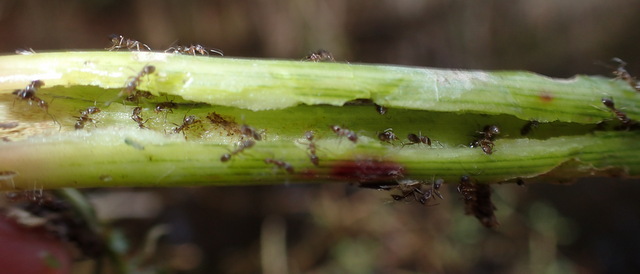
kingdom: Animalia
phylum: Arthropoda
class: Insecta
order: Hymenoptera
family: Formicidae
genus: Linepithema
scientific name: Linepithema humile
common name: Argentine ant
